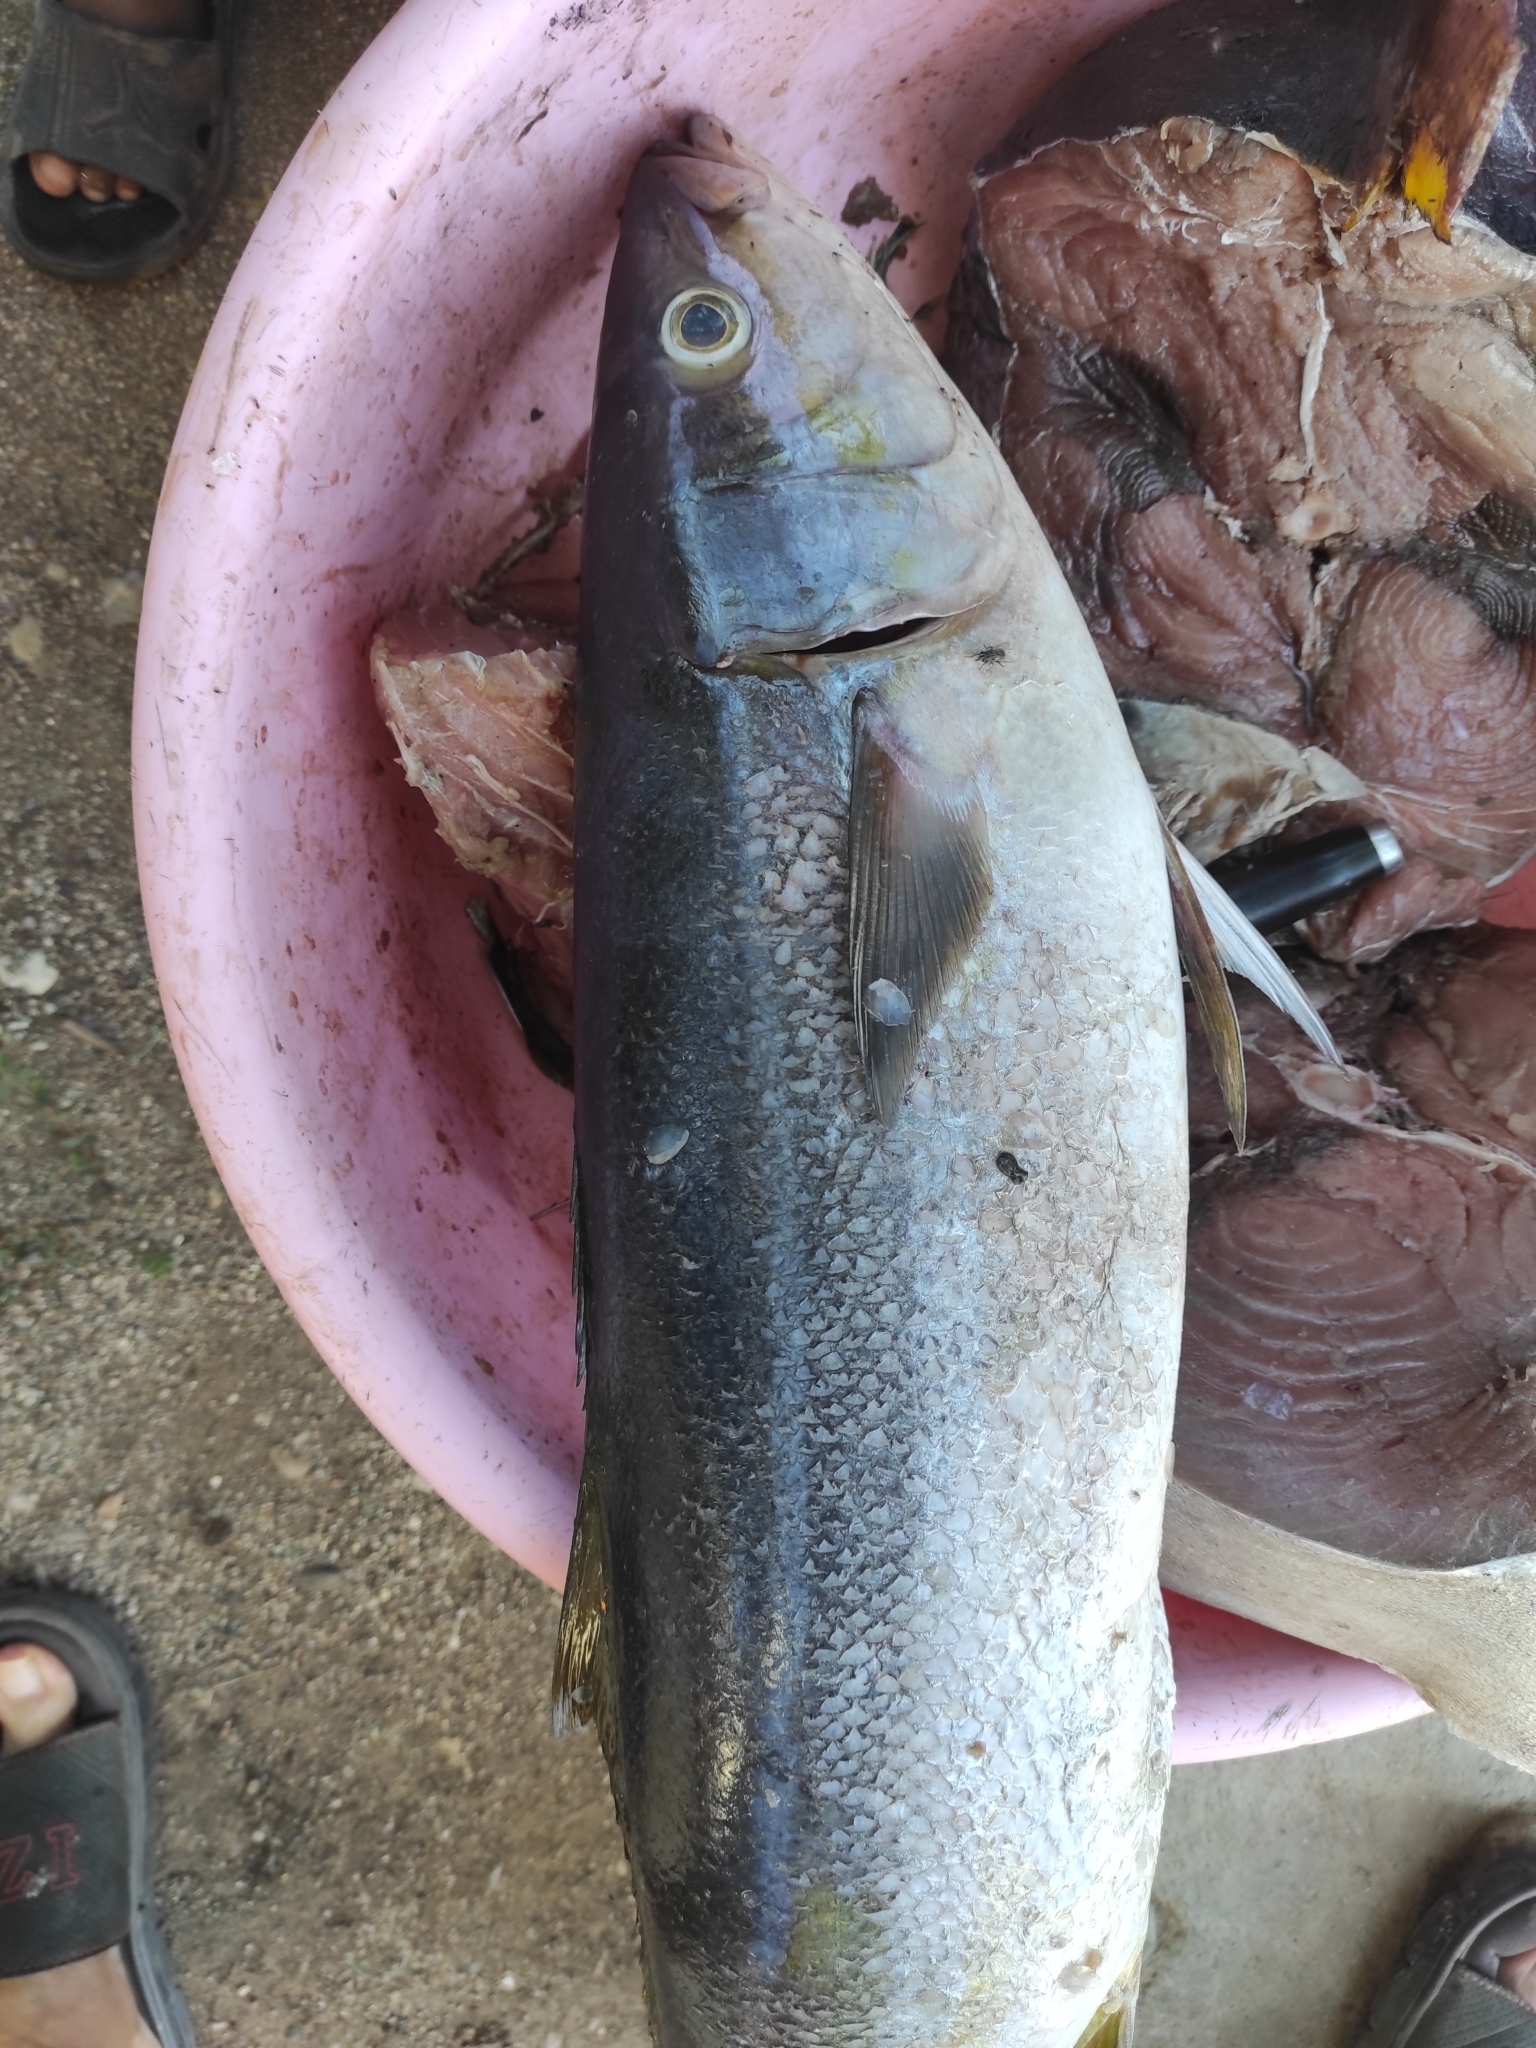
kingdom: Animalia
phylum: Chordata
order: Perciformes
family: Carangidae
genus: Elagatis
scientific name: Elagatis bipinnulata
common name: Rainbow runner
